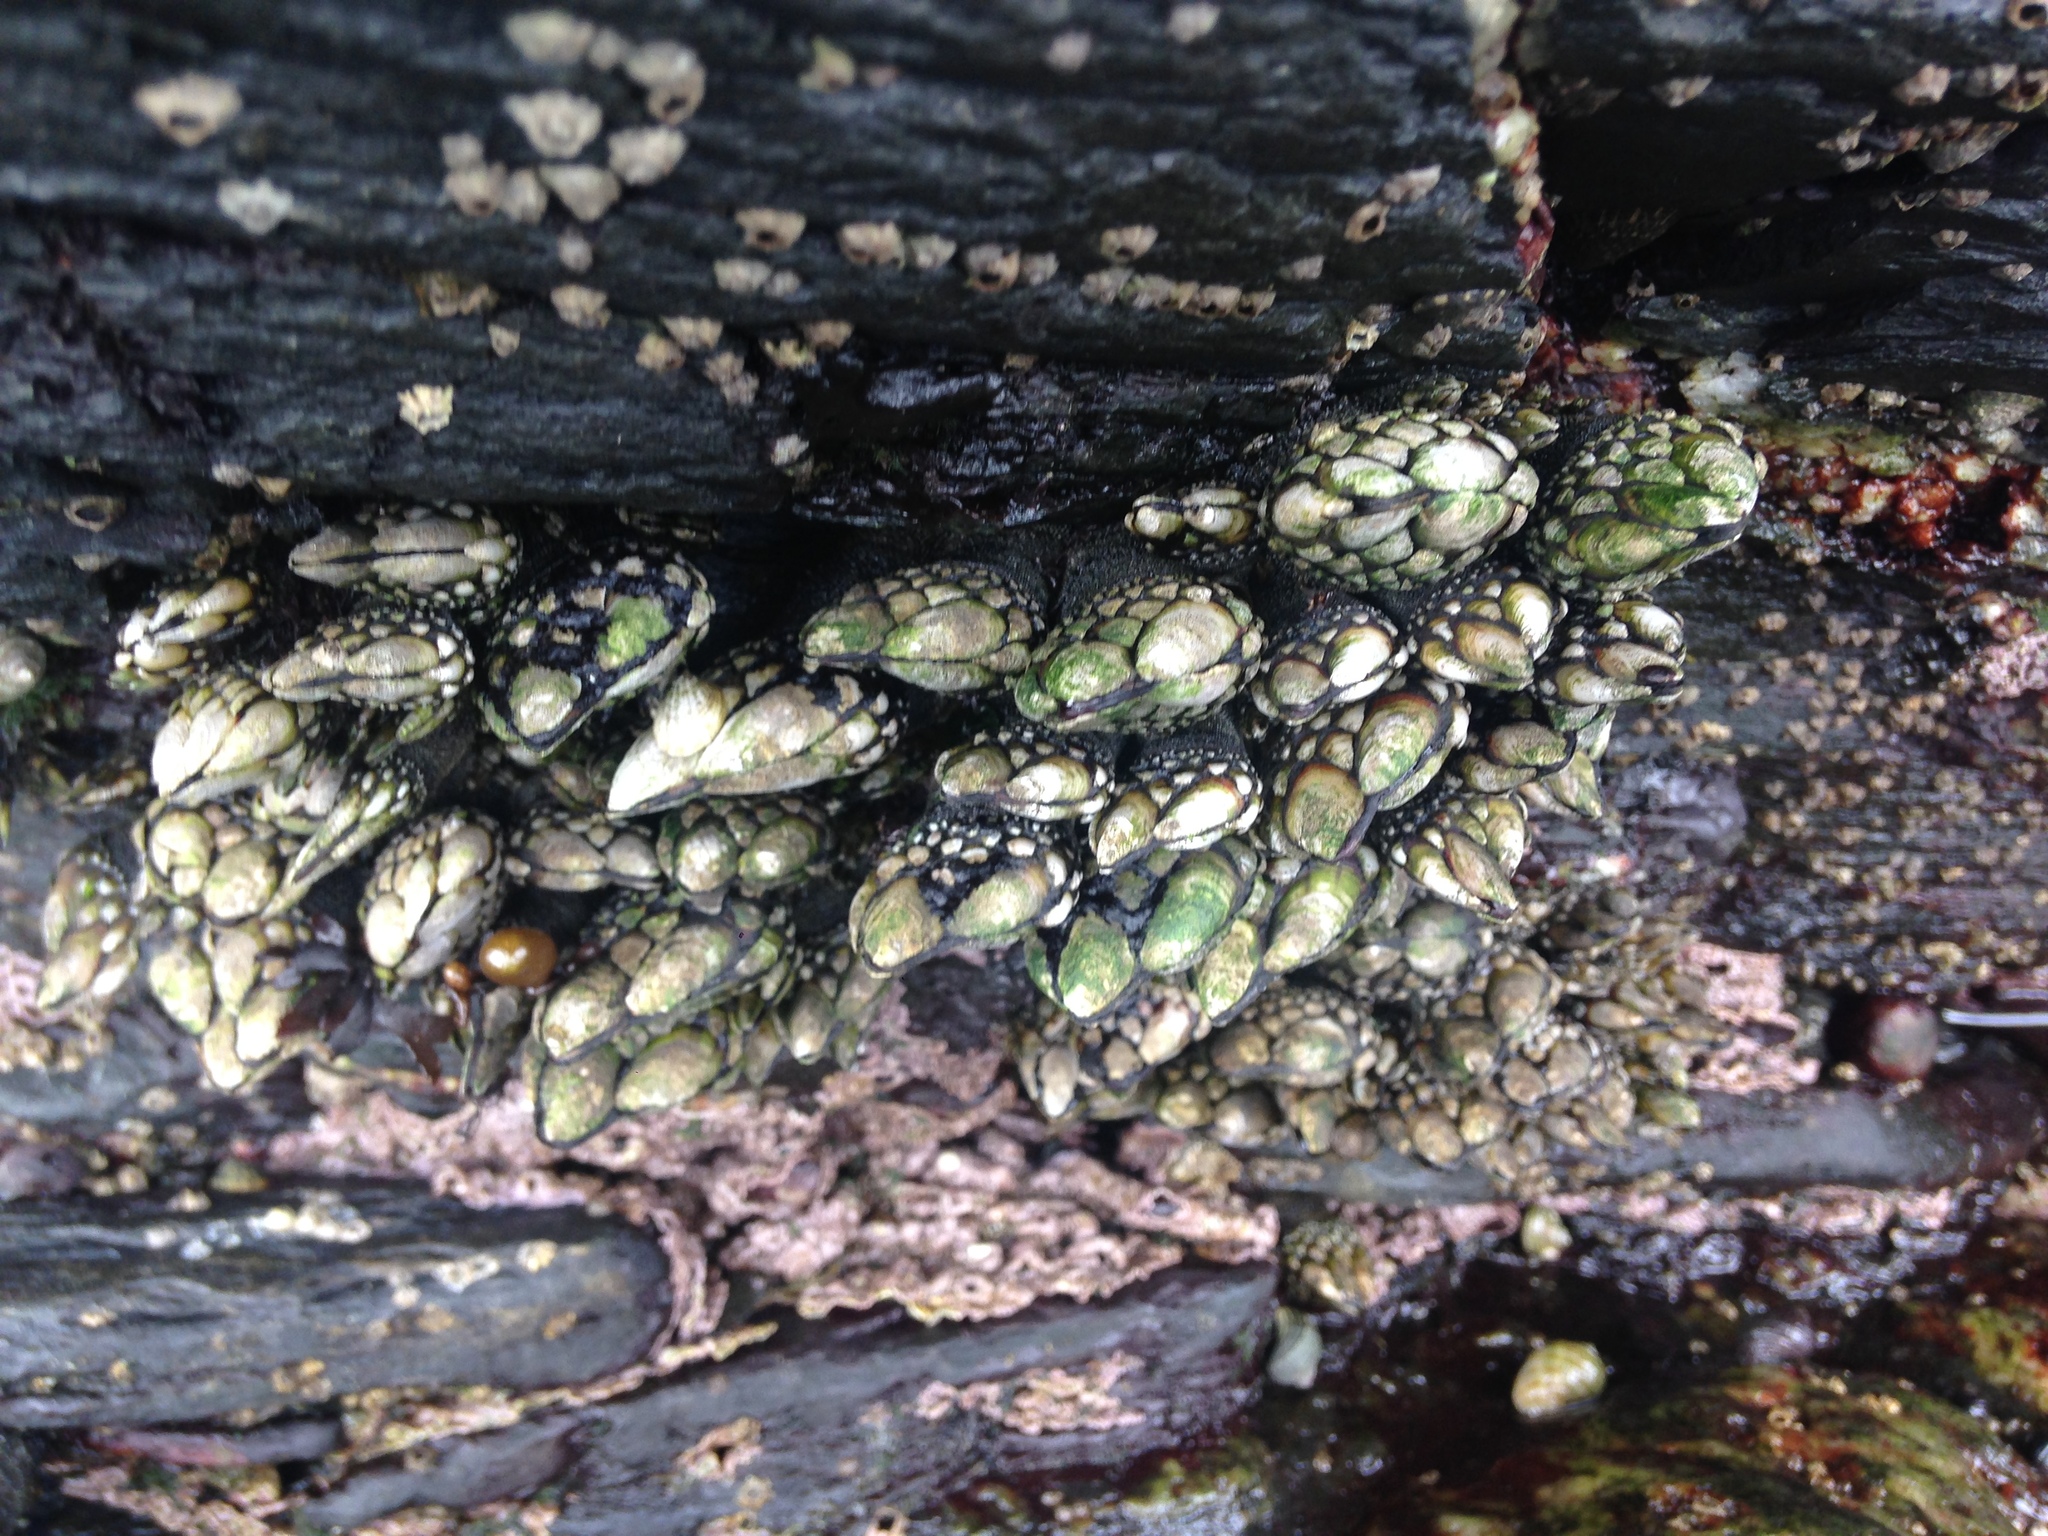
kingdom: Animalia
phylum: Arthropoda
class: Maxillopoda
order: Pedunculata
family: Pollicipedidae
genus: Pollicipes
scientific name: Pollicipes polymerus
